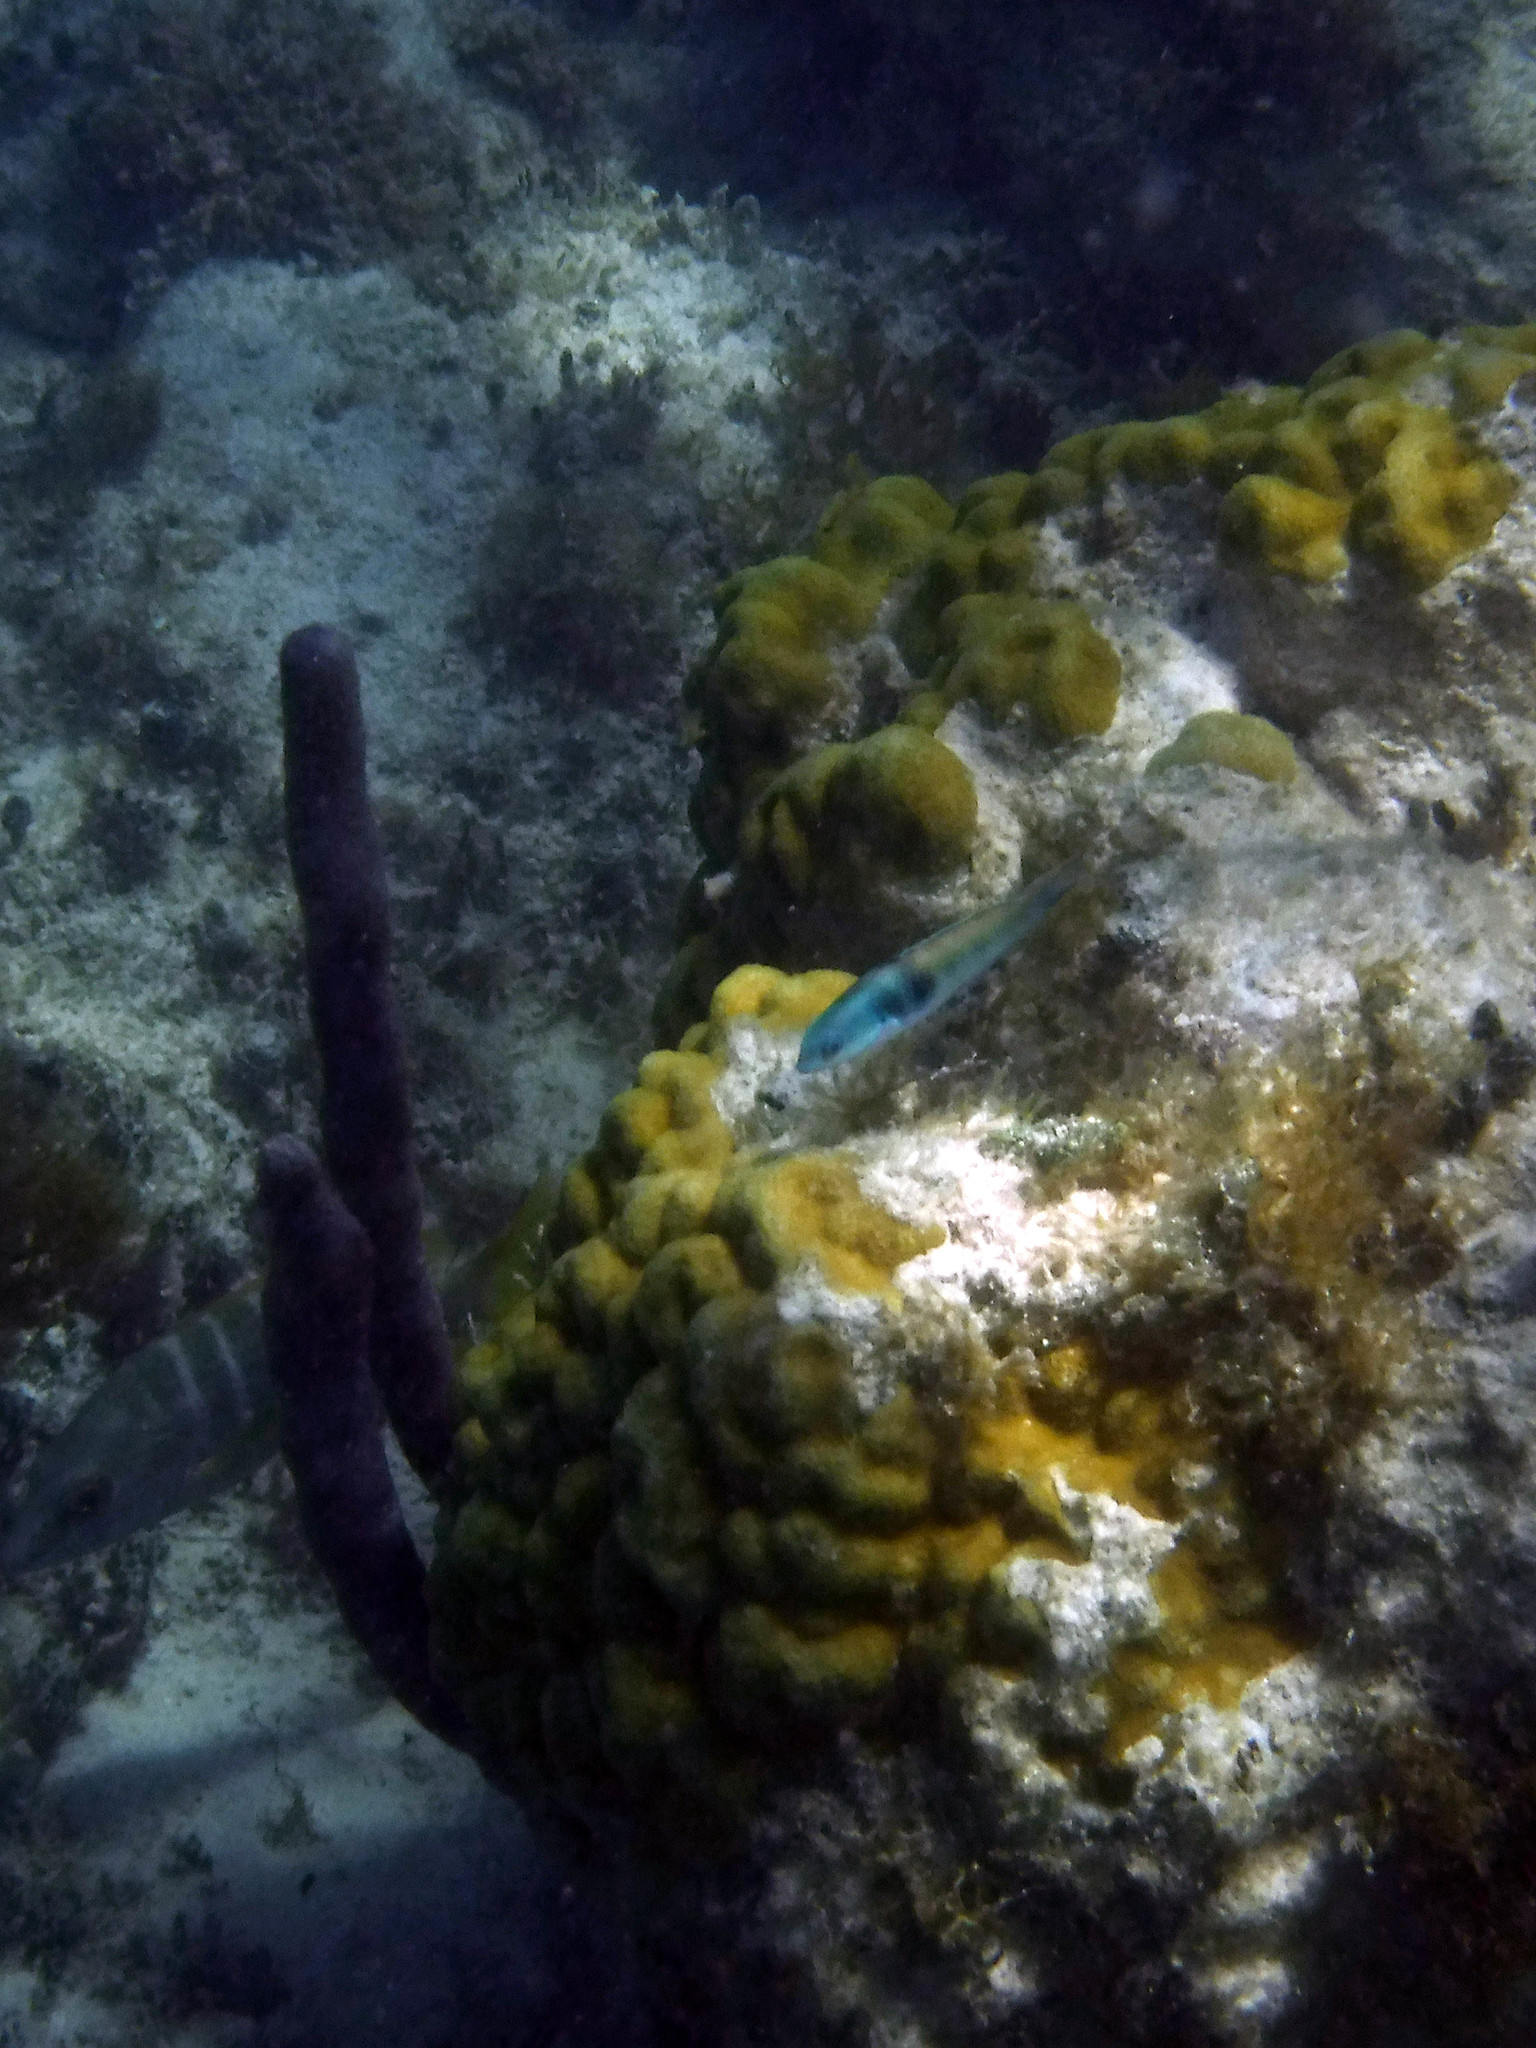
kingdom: Animalia
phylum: Chordata
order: Perciformes
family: Labridae
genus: Thalassoma
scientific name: Thalassoma bifasciatum
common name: Bluehead wrasse
